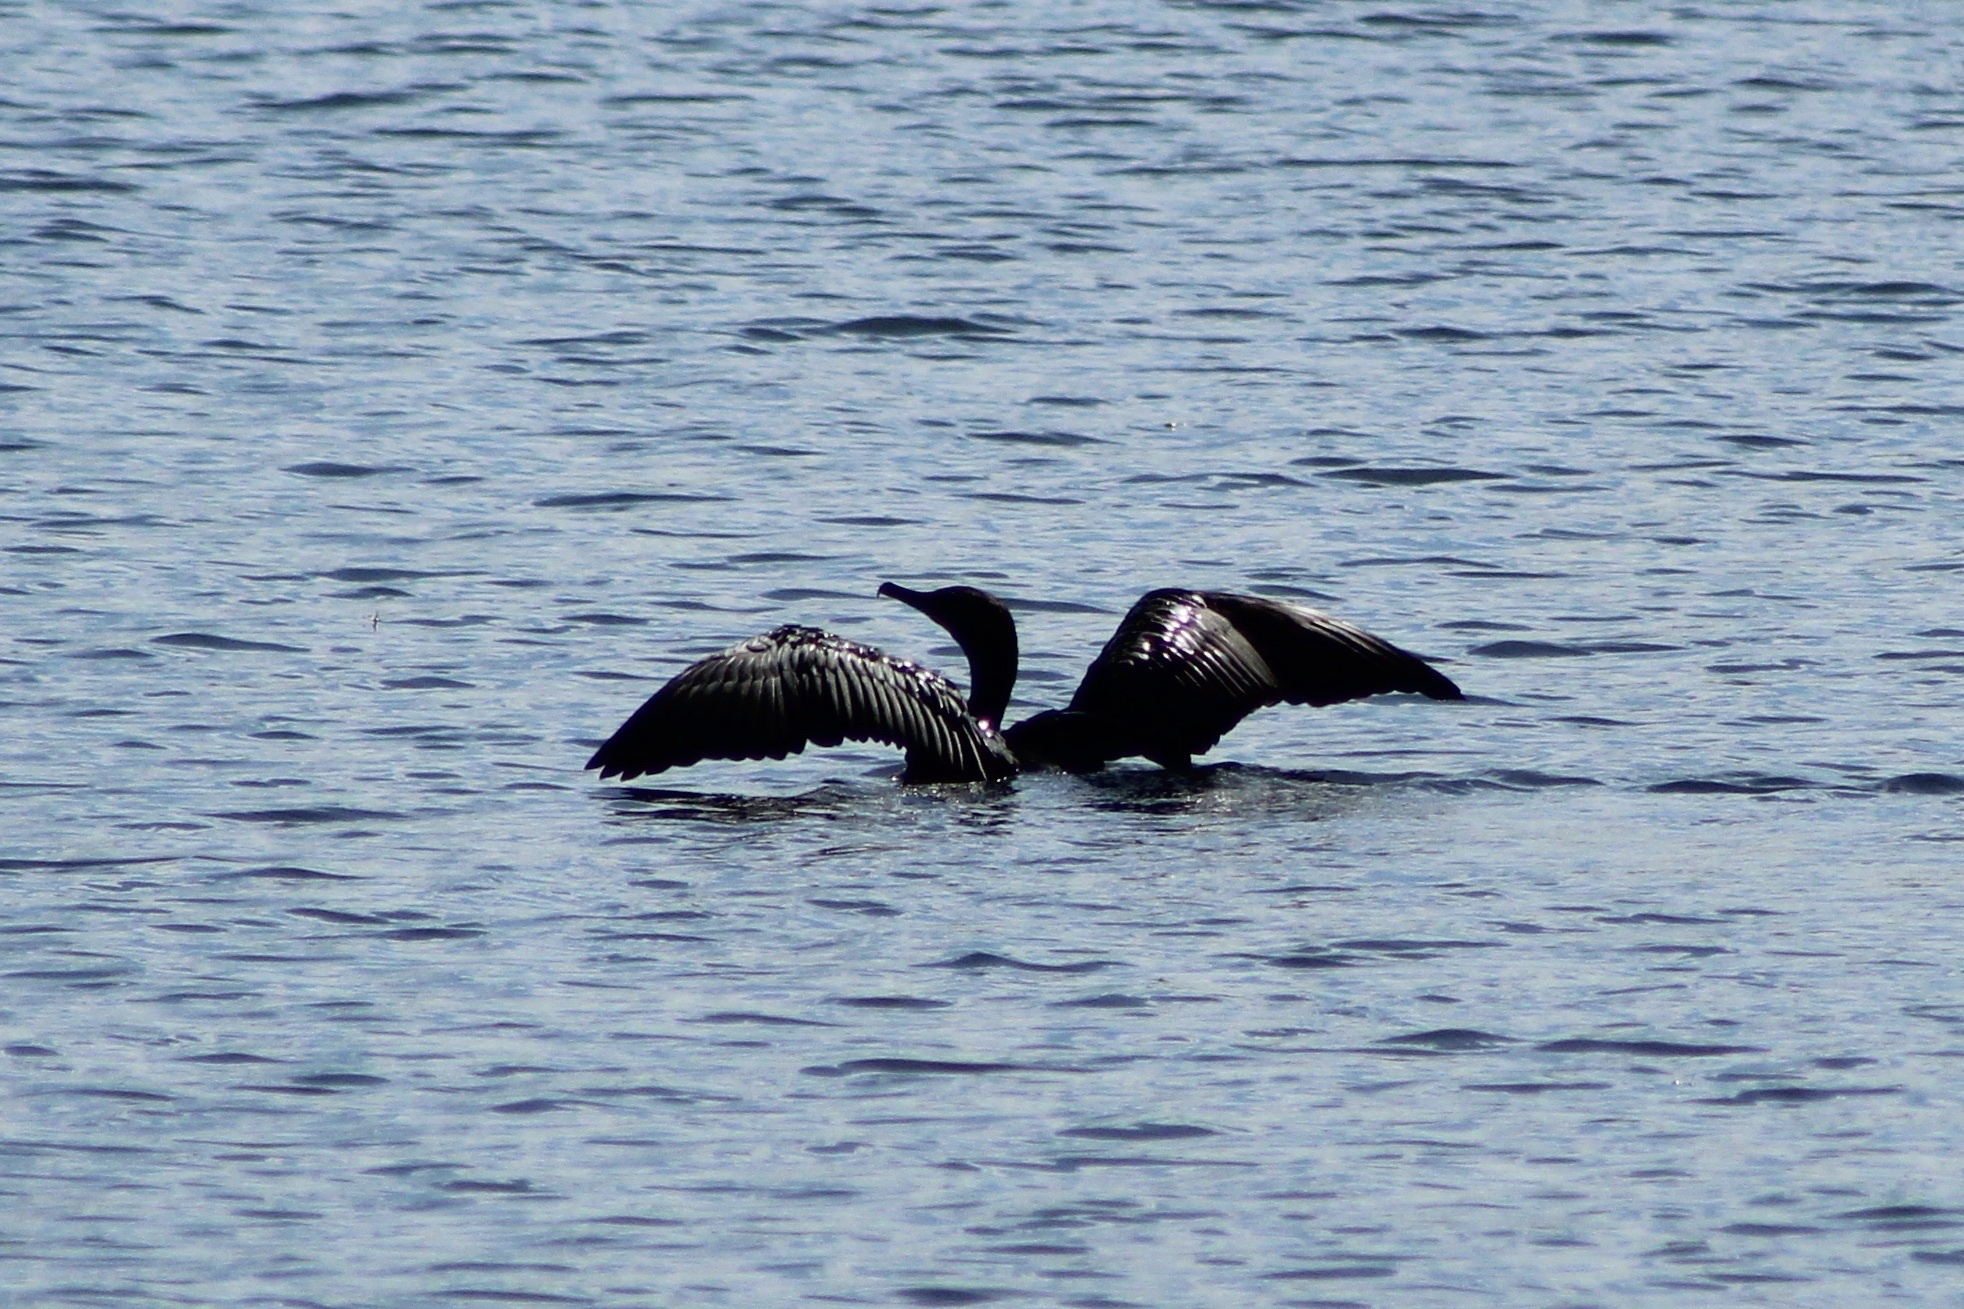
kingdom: Animalia
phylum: Chordata
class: Aves
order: Suliformes
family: Phalacrocoracidae
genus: Phalacrocorax
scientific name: Phalacrocorax auritus
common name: Double-crested cormorant
